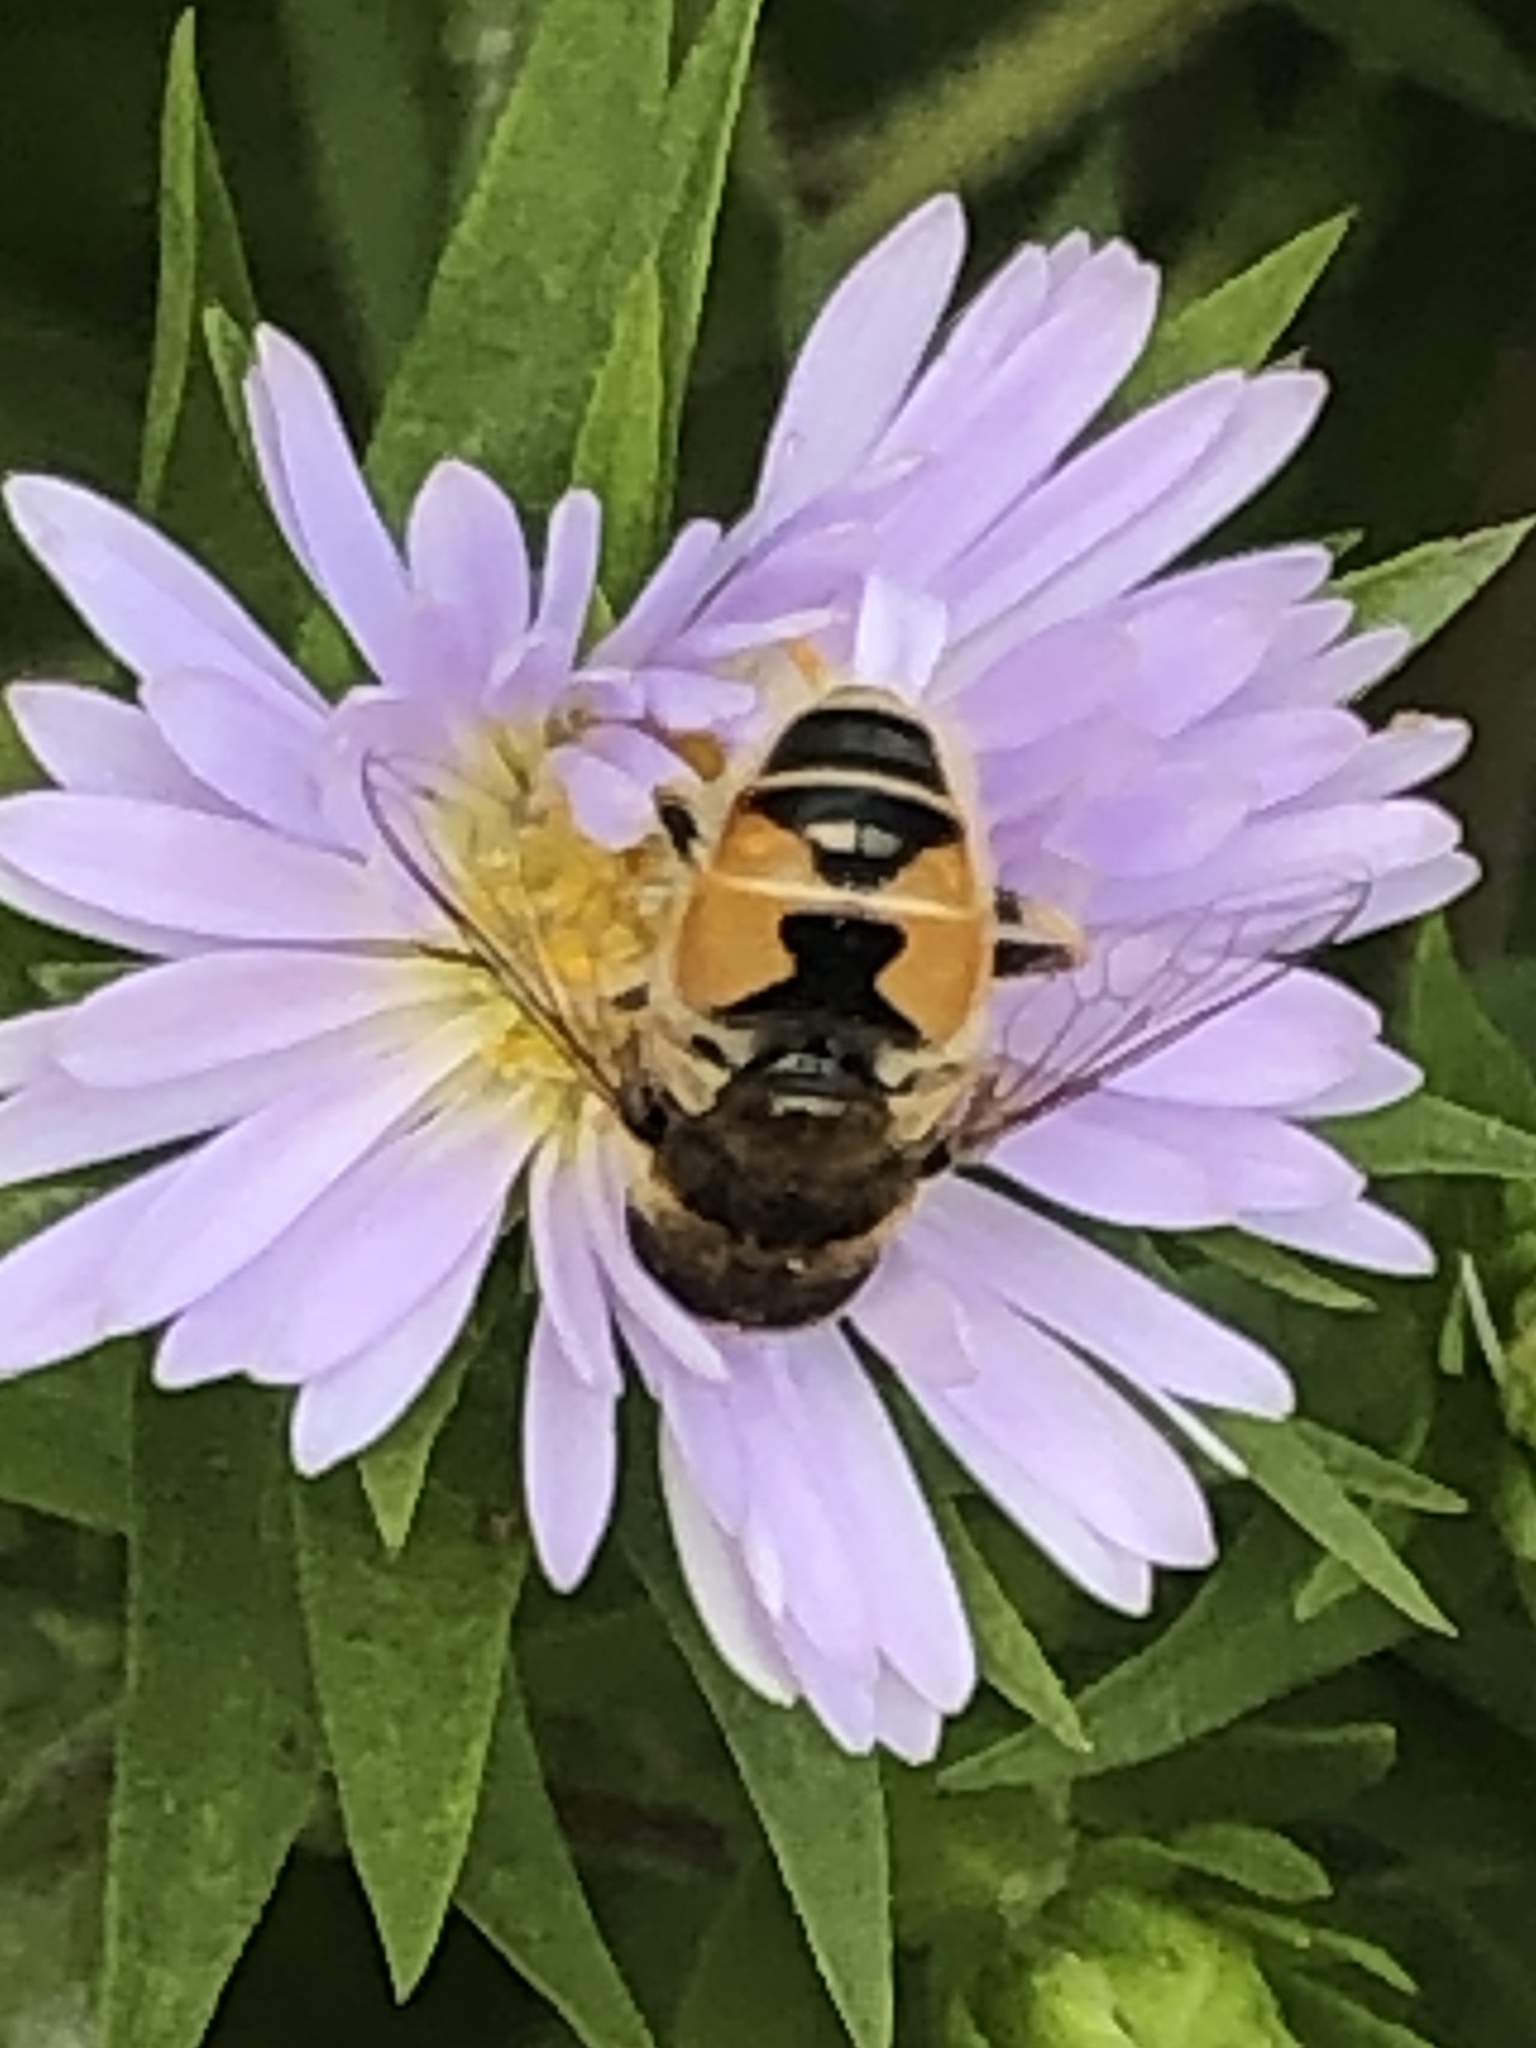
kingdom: Animalia
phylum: Arthropoda
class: Insecta
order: Diptera
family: Syrphidae
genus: Eristalis
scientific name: Eristalis arbustorum
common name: Hover fly
